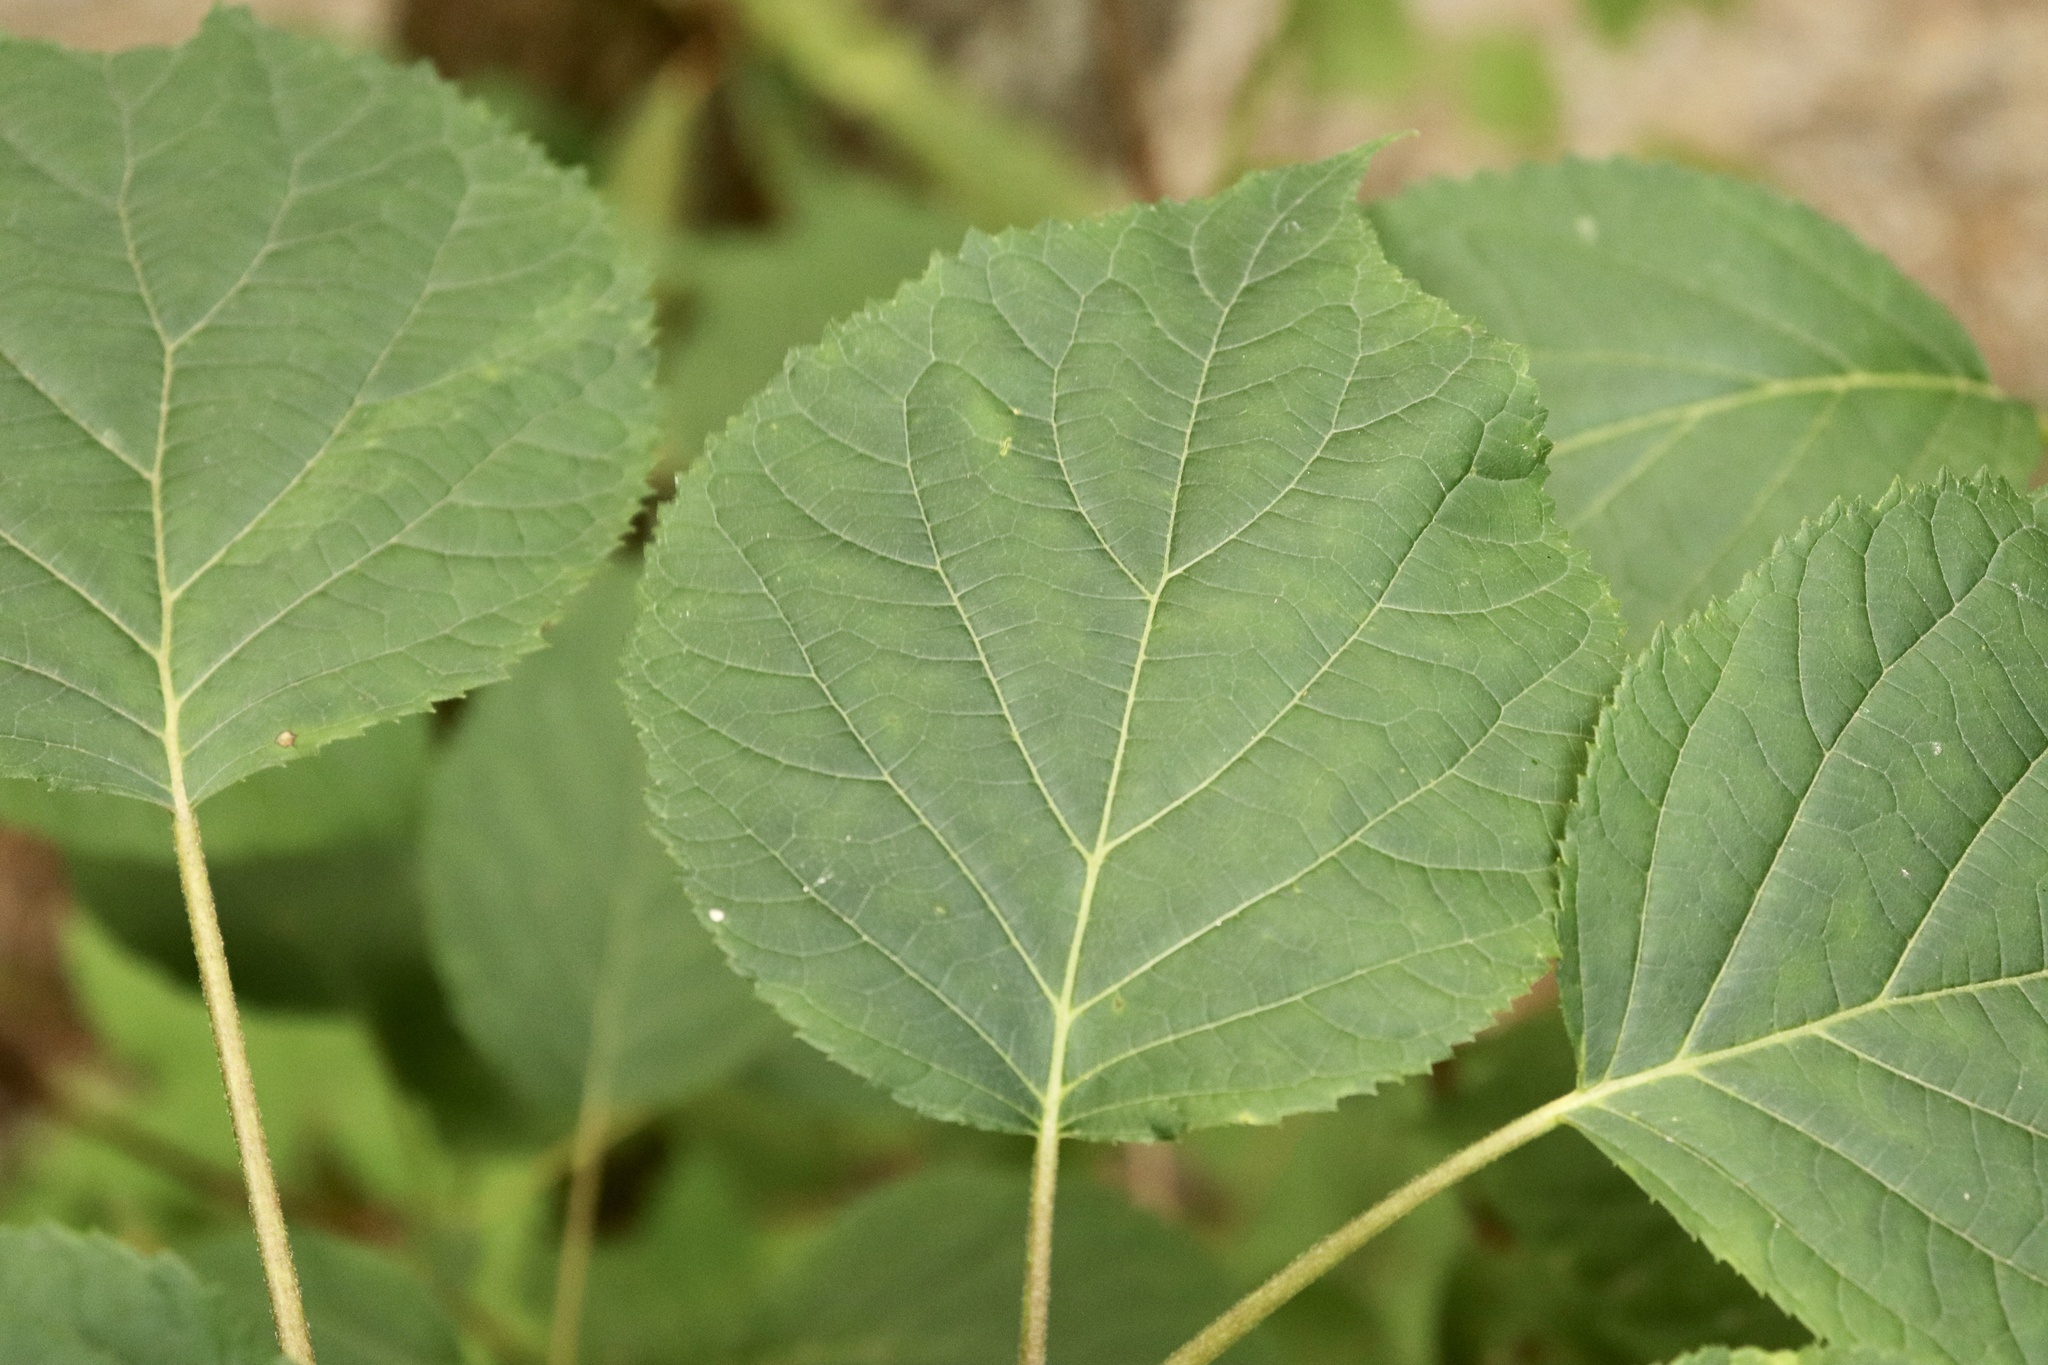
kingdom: Plantae
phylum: Tracheophyta
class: Magnoliopsida
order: Cornales
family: Hydrangeaceae
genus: Hydrangea
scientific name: Hydrangea arborescens
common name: Sevenbark
